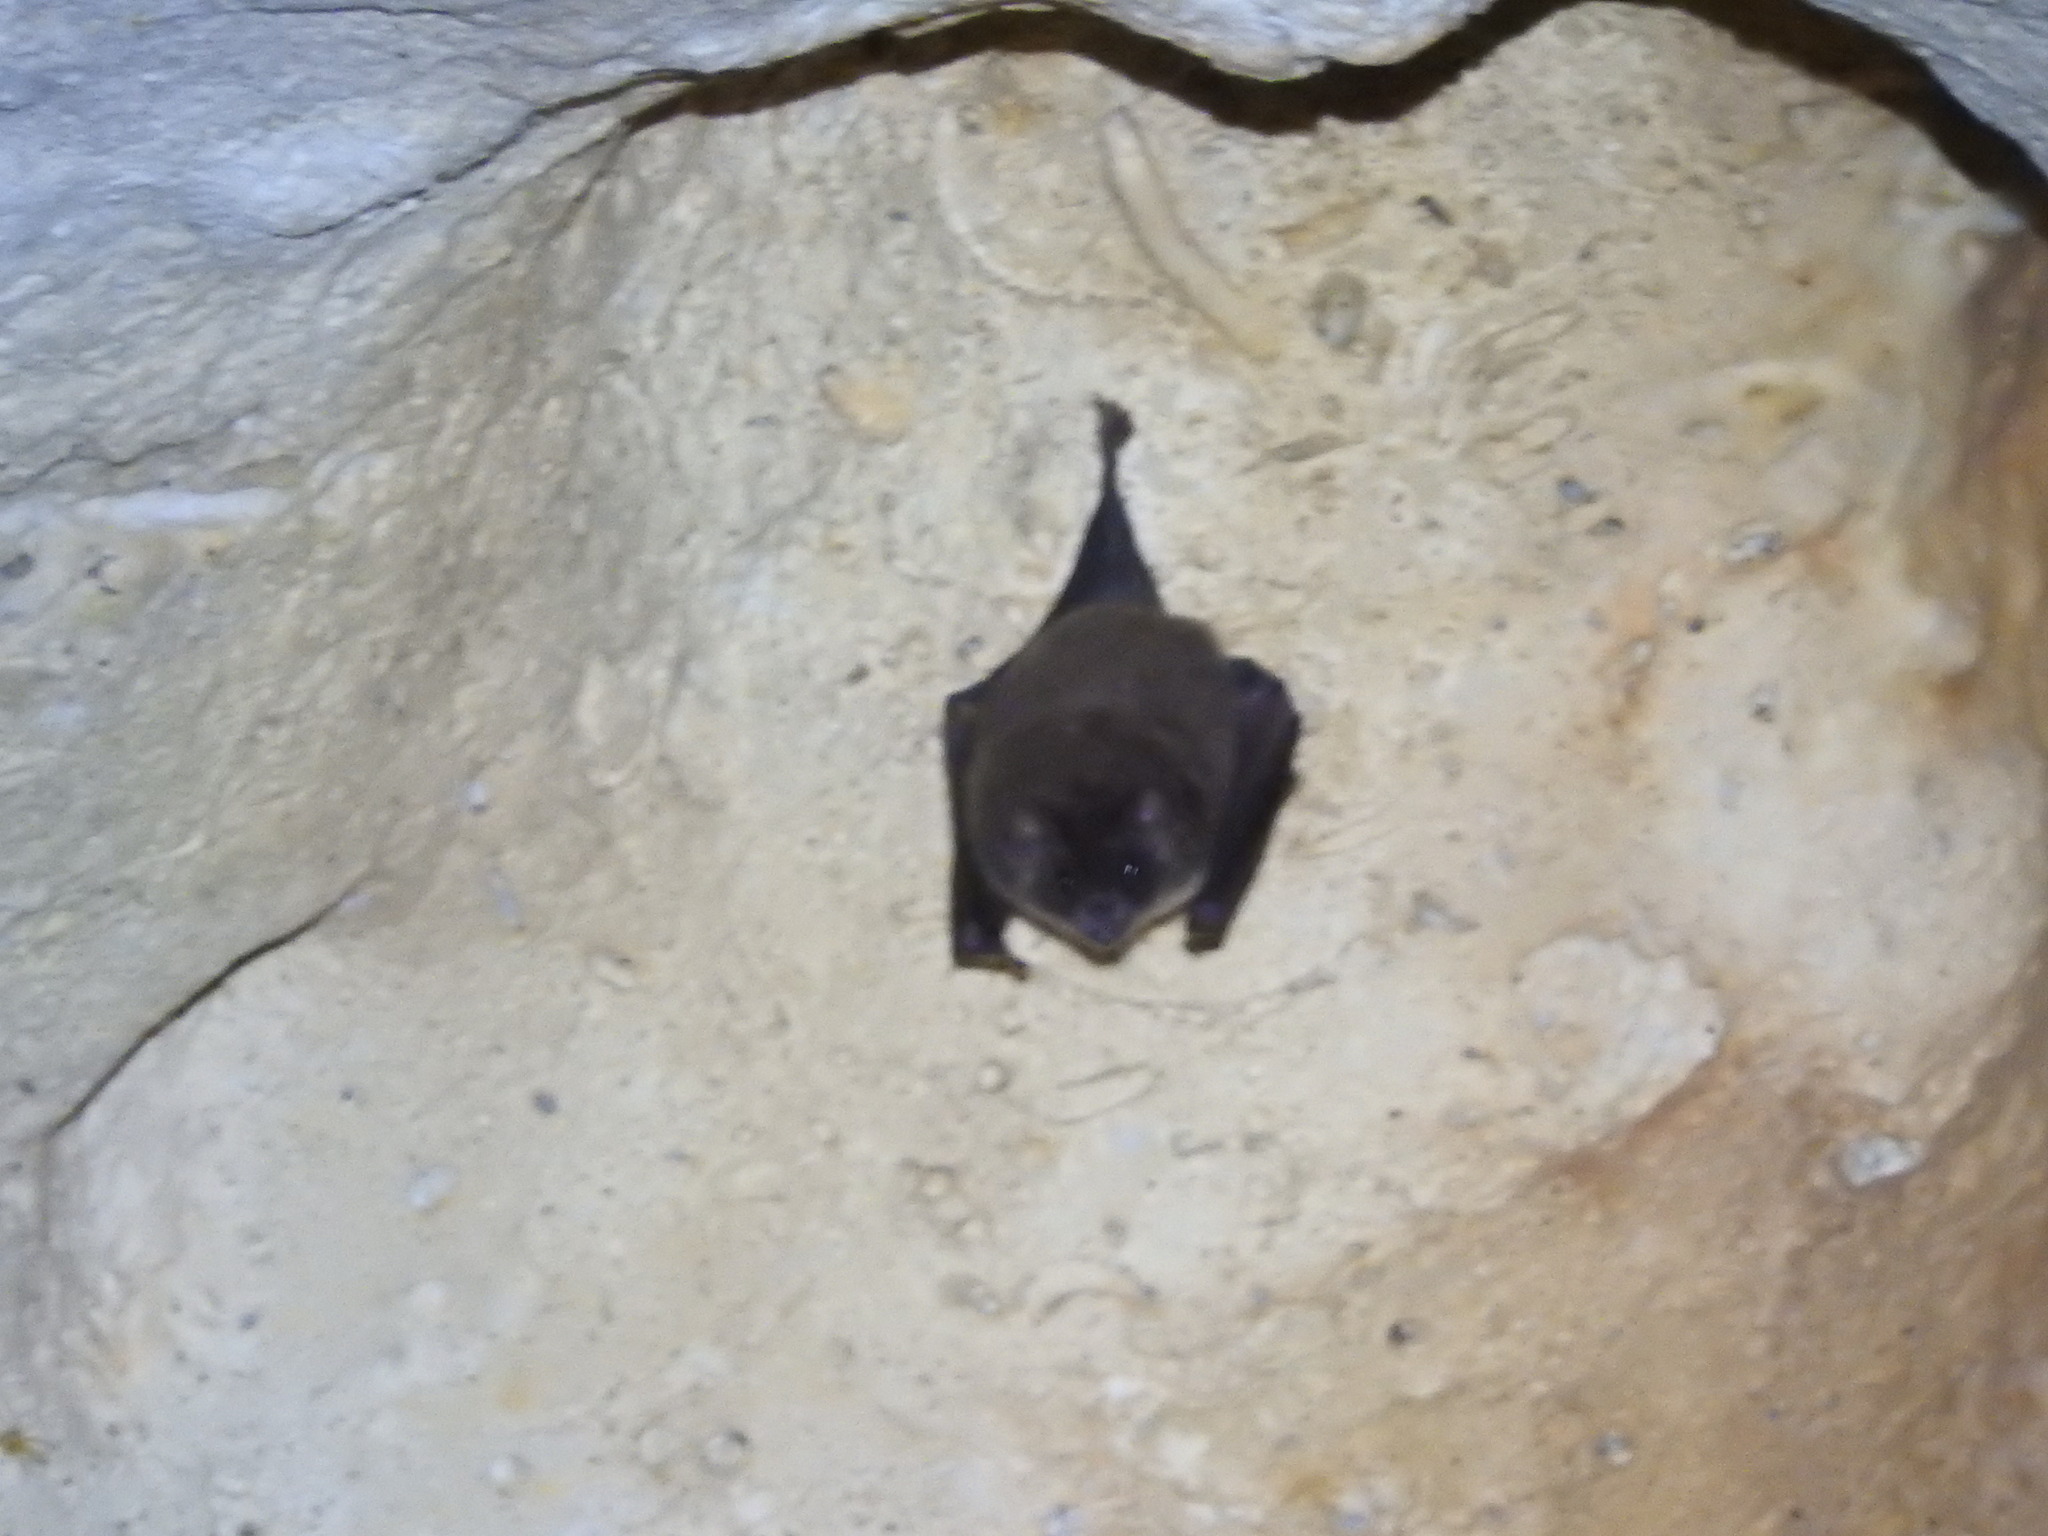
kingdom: Animalia
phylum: Chordata
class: Mammalia
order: Chiroptera
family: Phyllostomidae
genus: Glossophaga
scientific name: Glossophaga soricina
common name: Pallas's long-tongued bat
